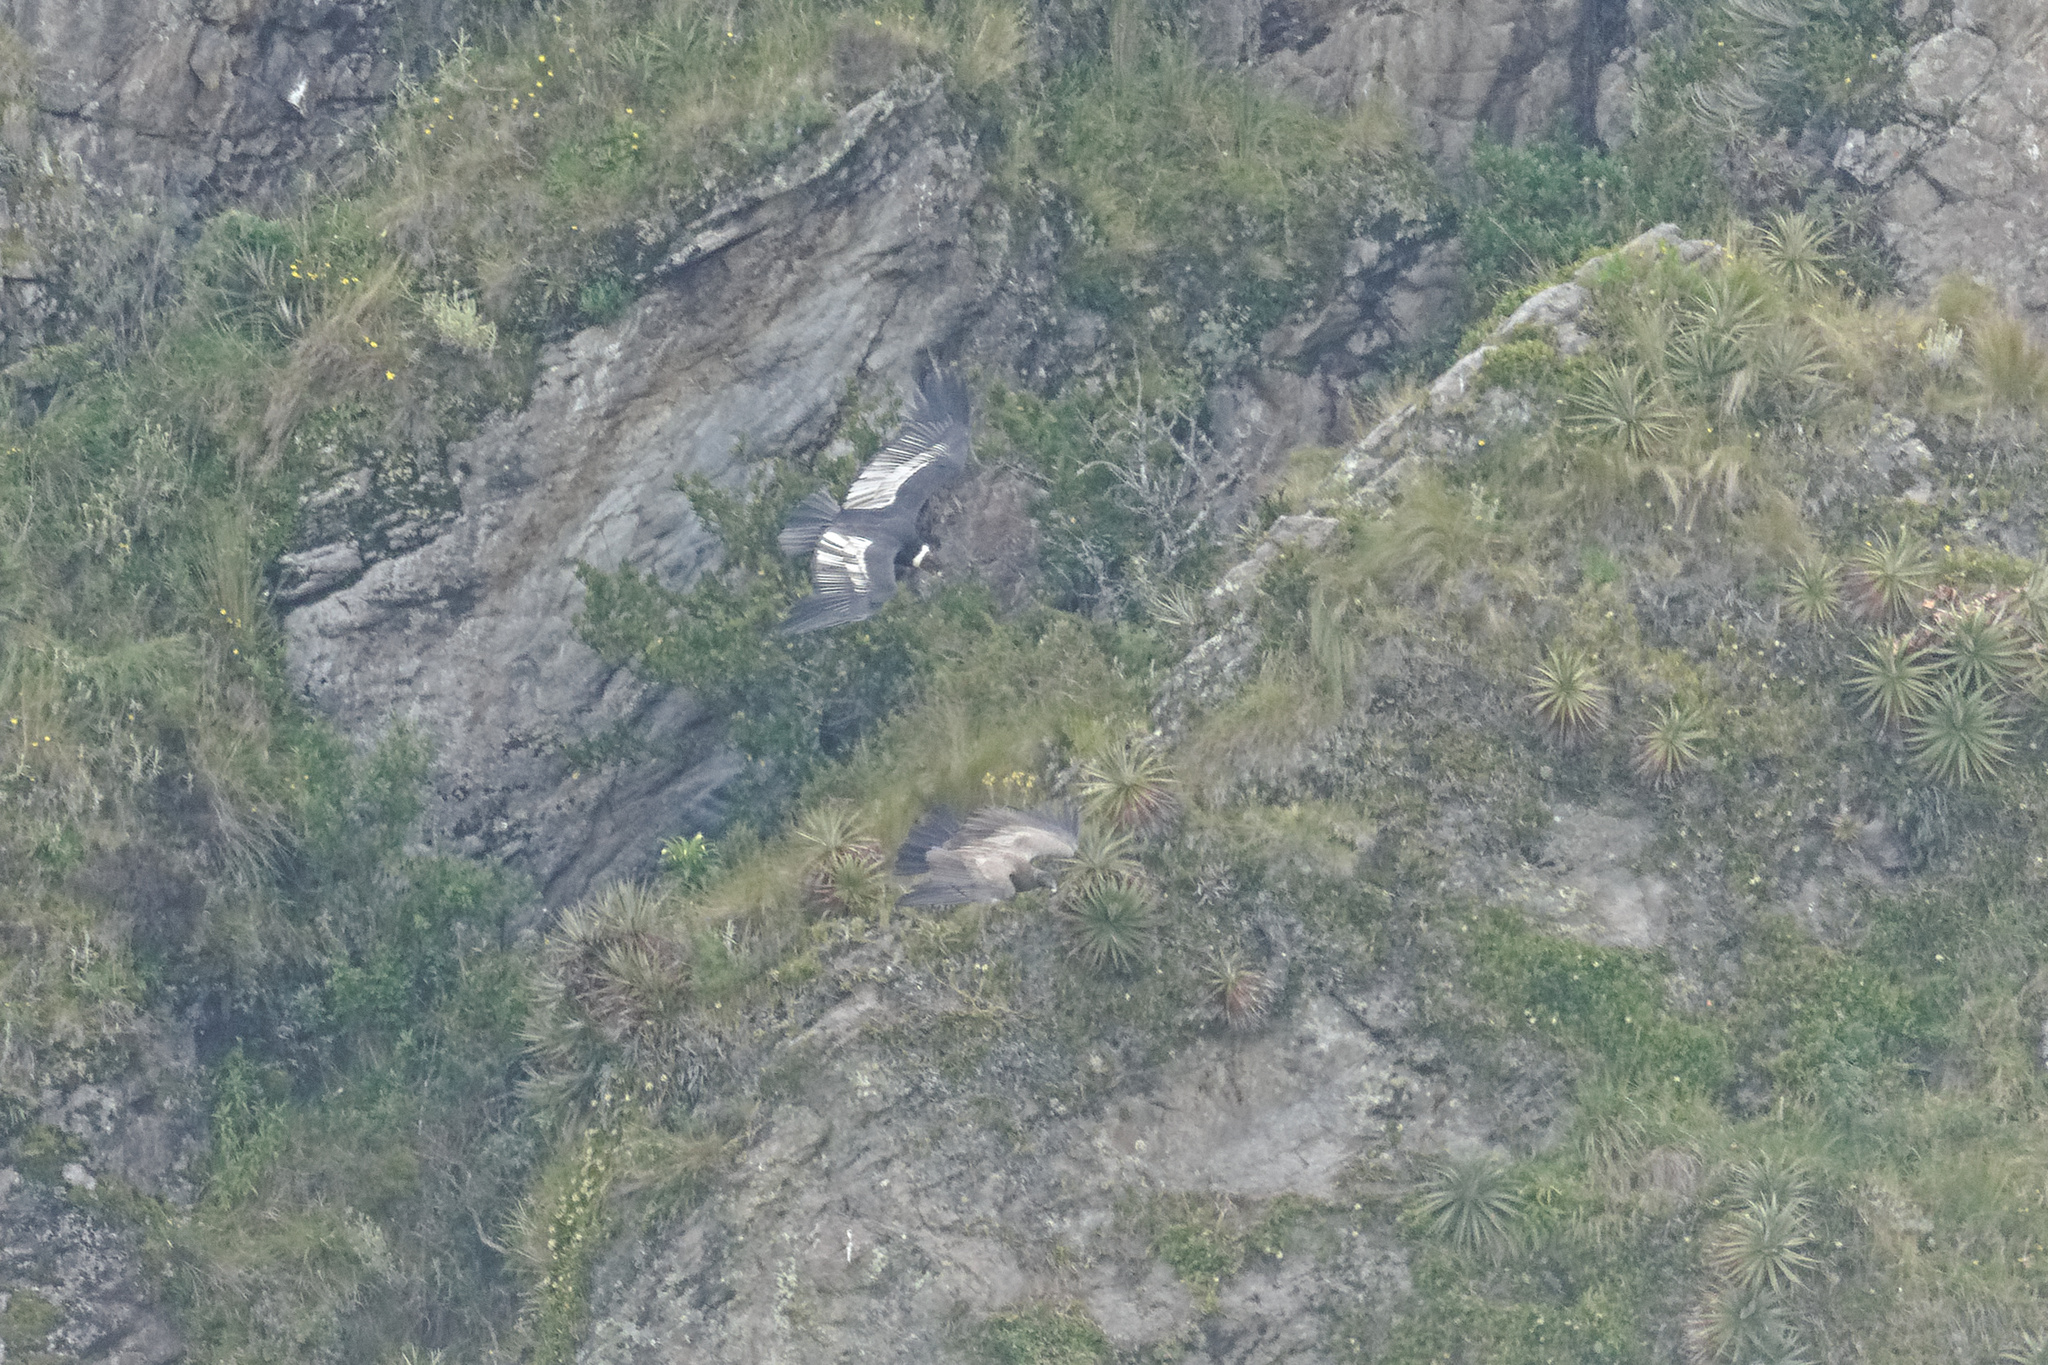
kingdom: Animalia
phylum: Chordata
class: Aves
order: Accipitriformes
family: Cathartidae
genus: Vultur
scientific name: Vultur gryphus
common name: Andean condor
